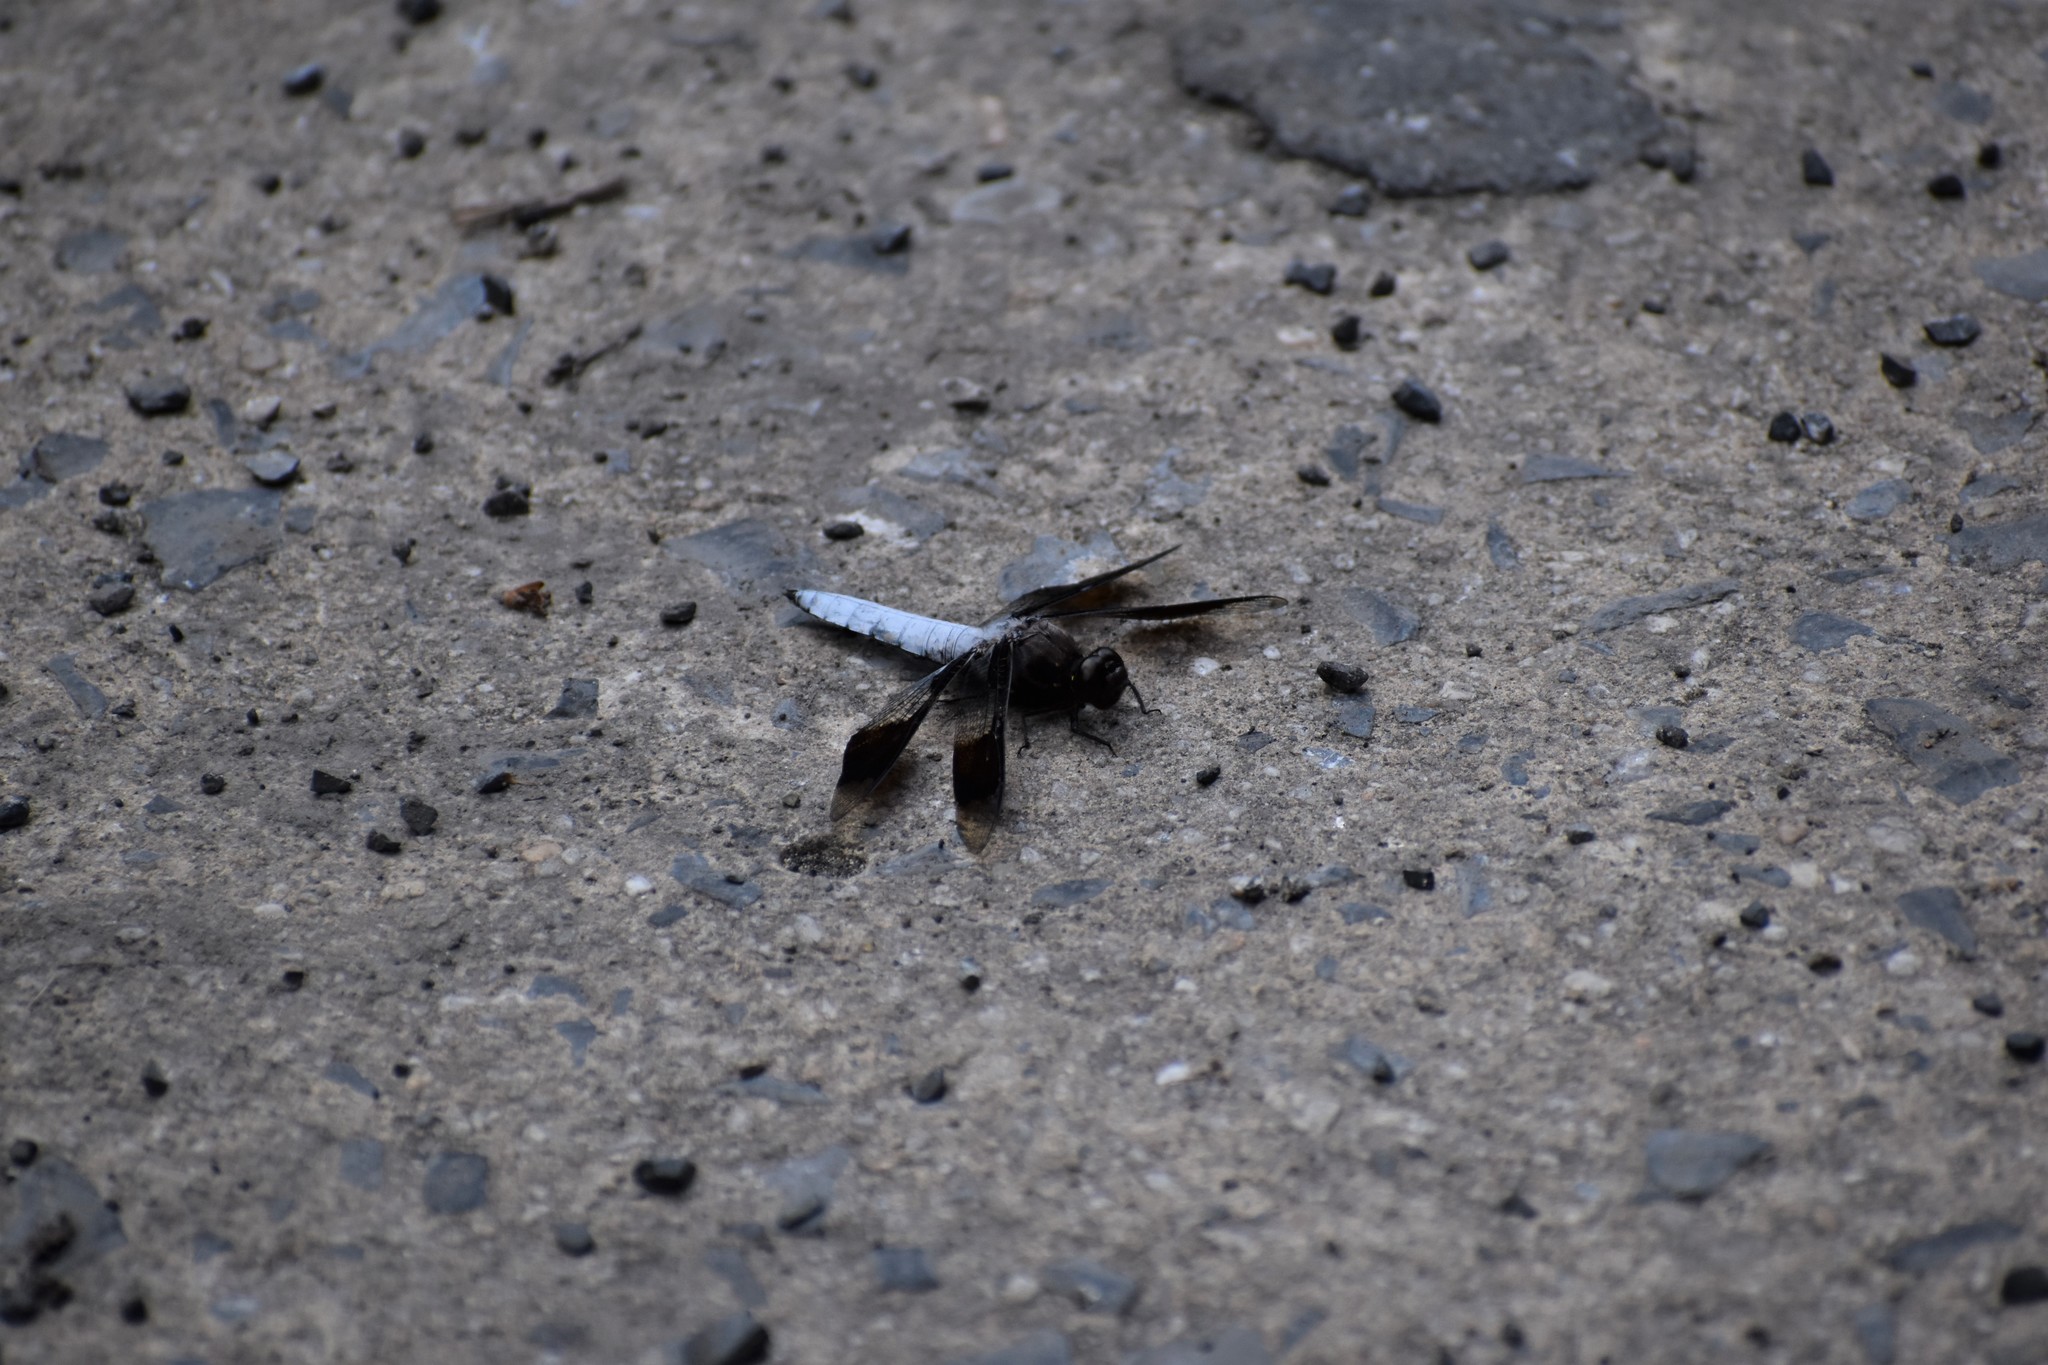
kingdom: Animalia
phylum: Arthropoda
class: Insecta
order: Odonata
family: Libellulidae
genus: Plathemis
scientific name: Plathemis lydia
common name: Common whitetail
